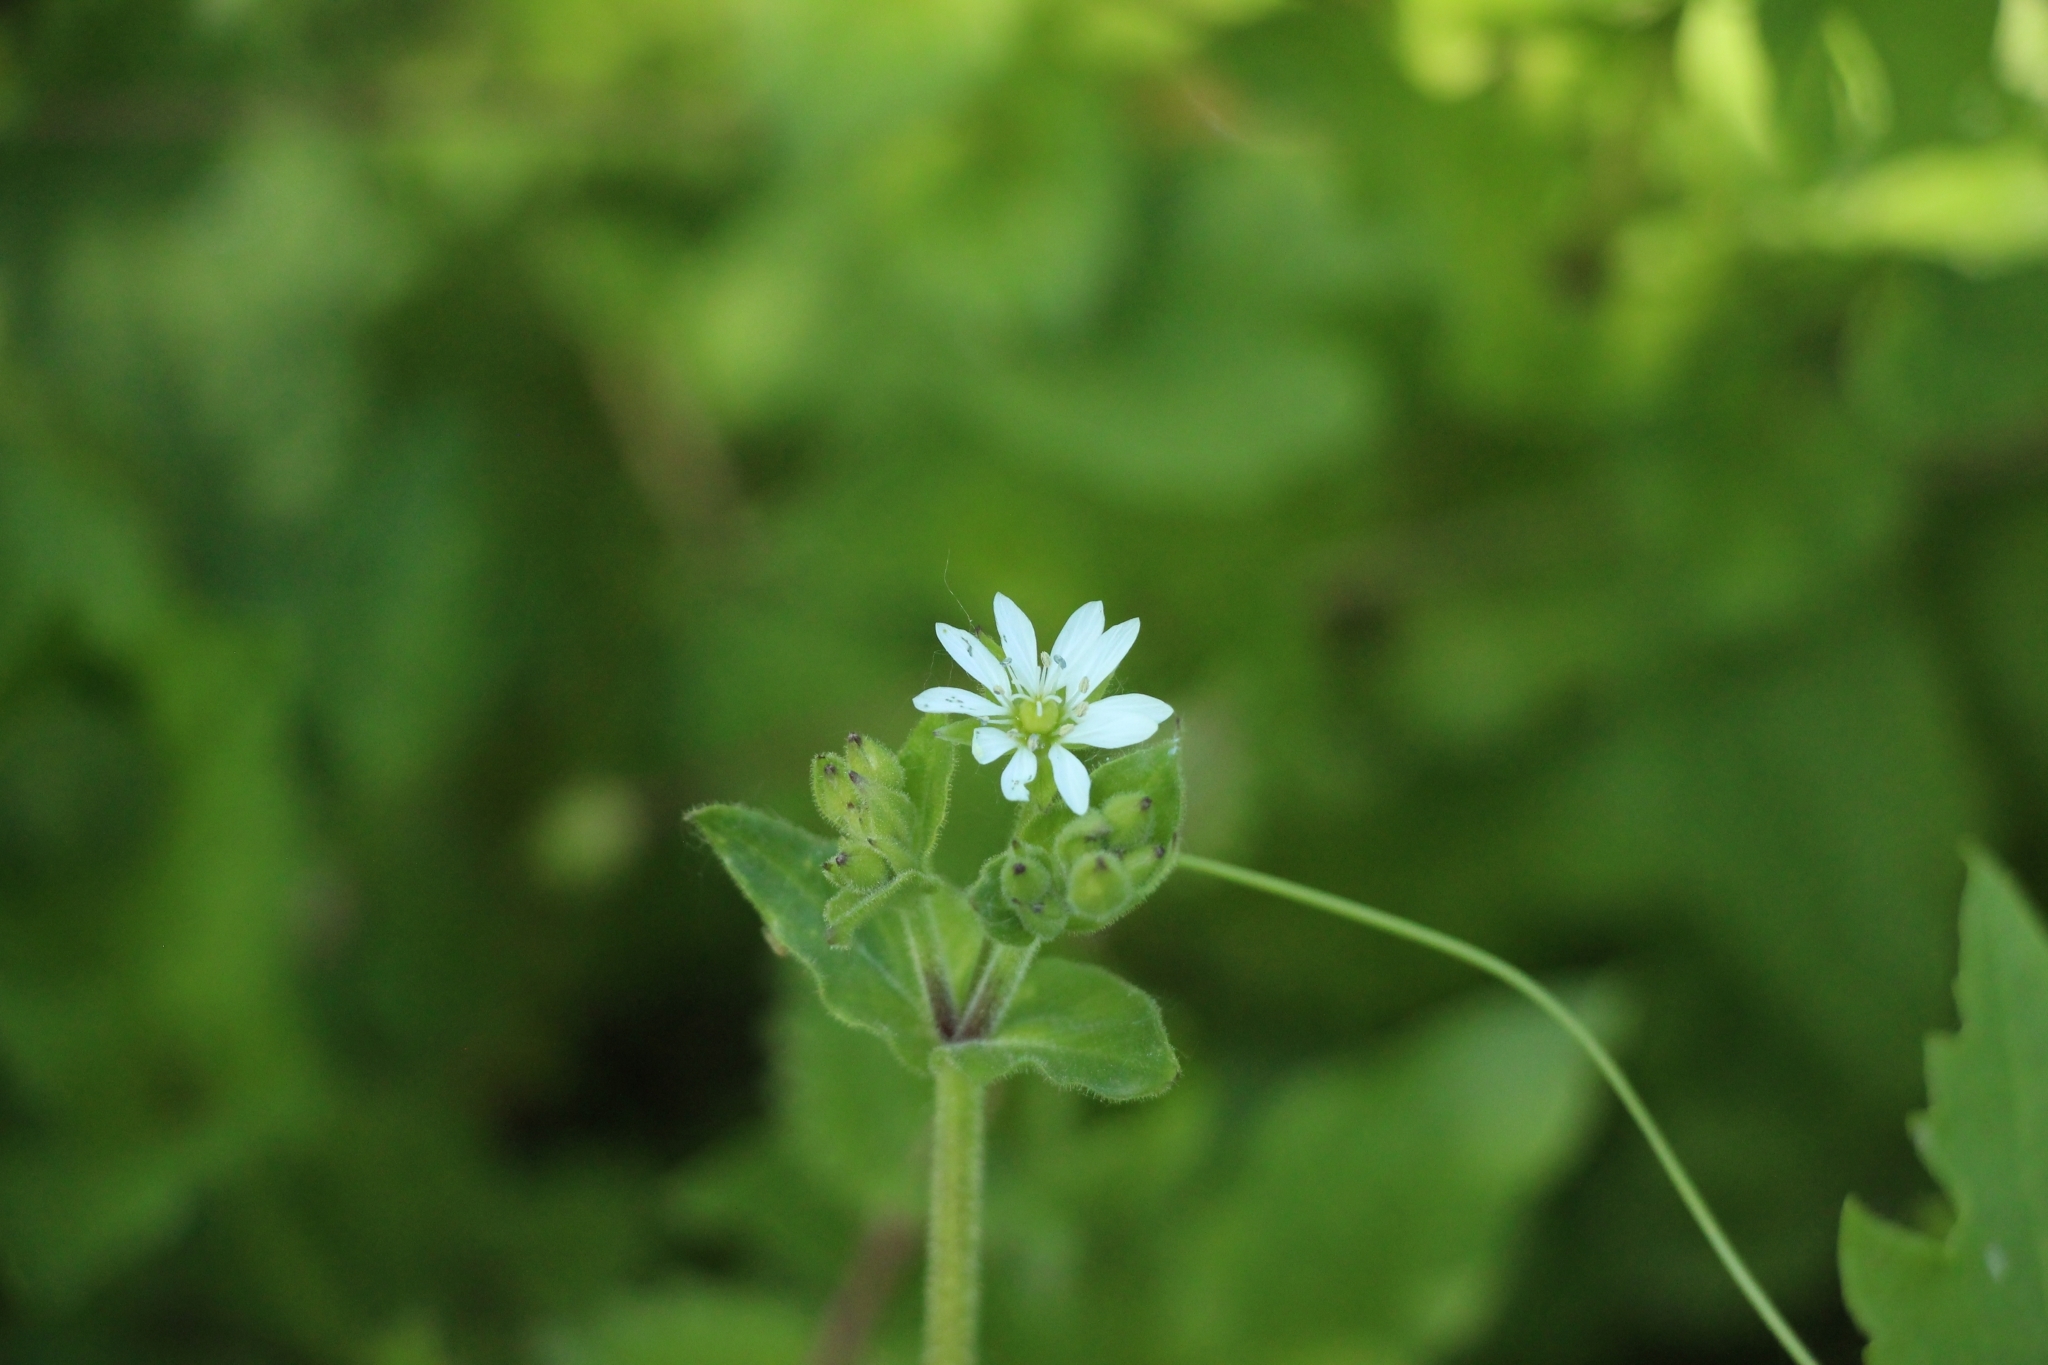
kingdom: Plantae
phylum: Tracheophyta
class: Magnoliopsida
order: Caryophyllales
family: Caryophyllaceae
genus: Stellaria
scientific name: Stellaria aquatica
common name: Water chickweed
